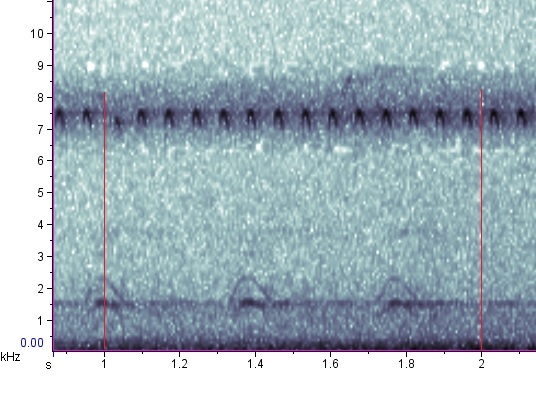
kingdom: Animalia
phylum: Arthropoda
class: Insecta
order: Orthoptera
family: Trigonidiidae
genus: Anaxipha
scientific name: Anaxipha tinnulacita
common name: Fast-tinkling trig
